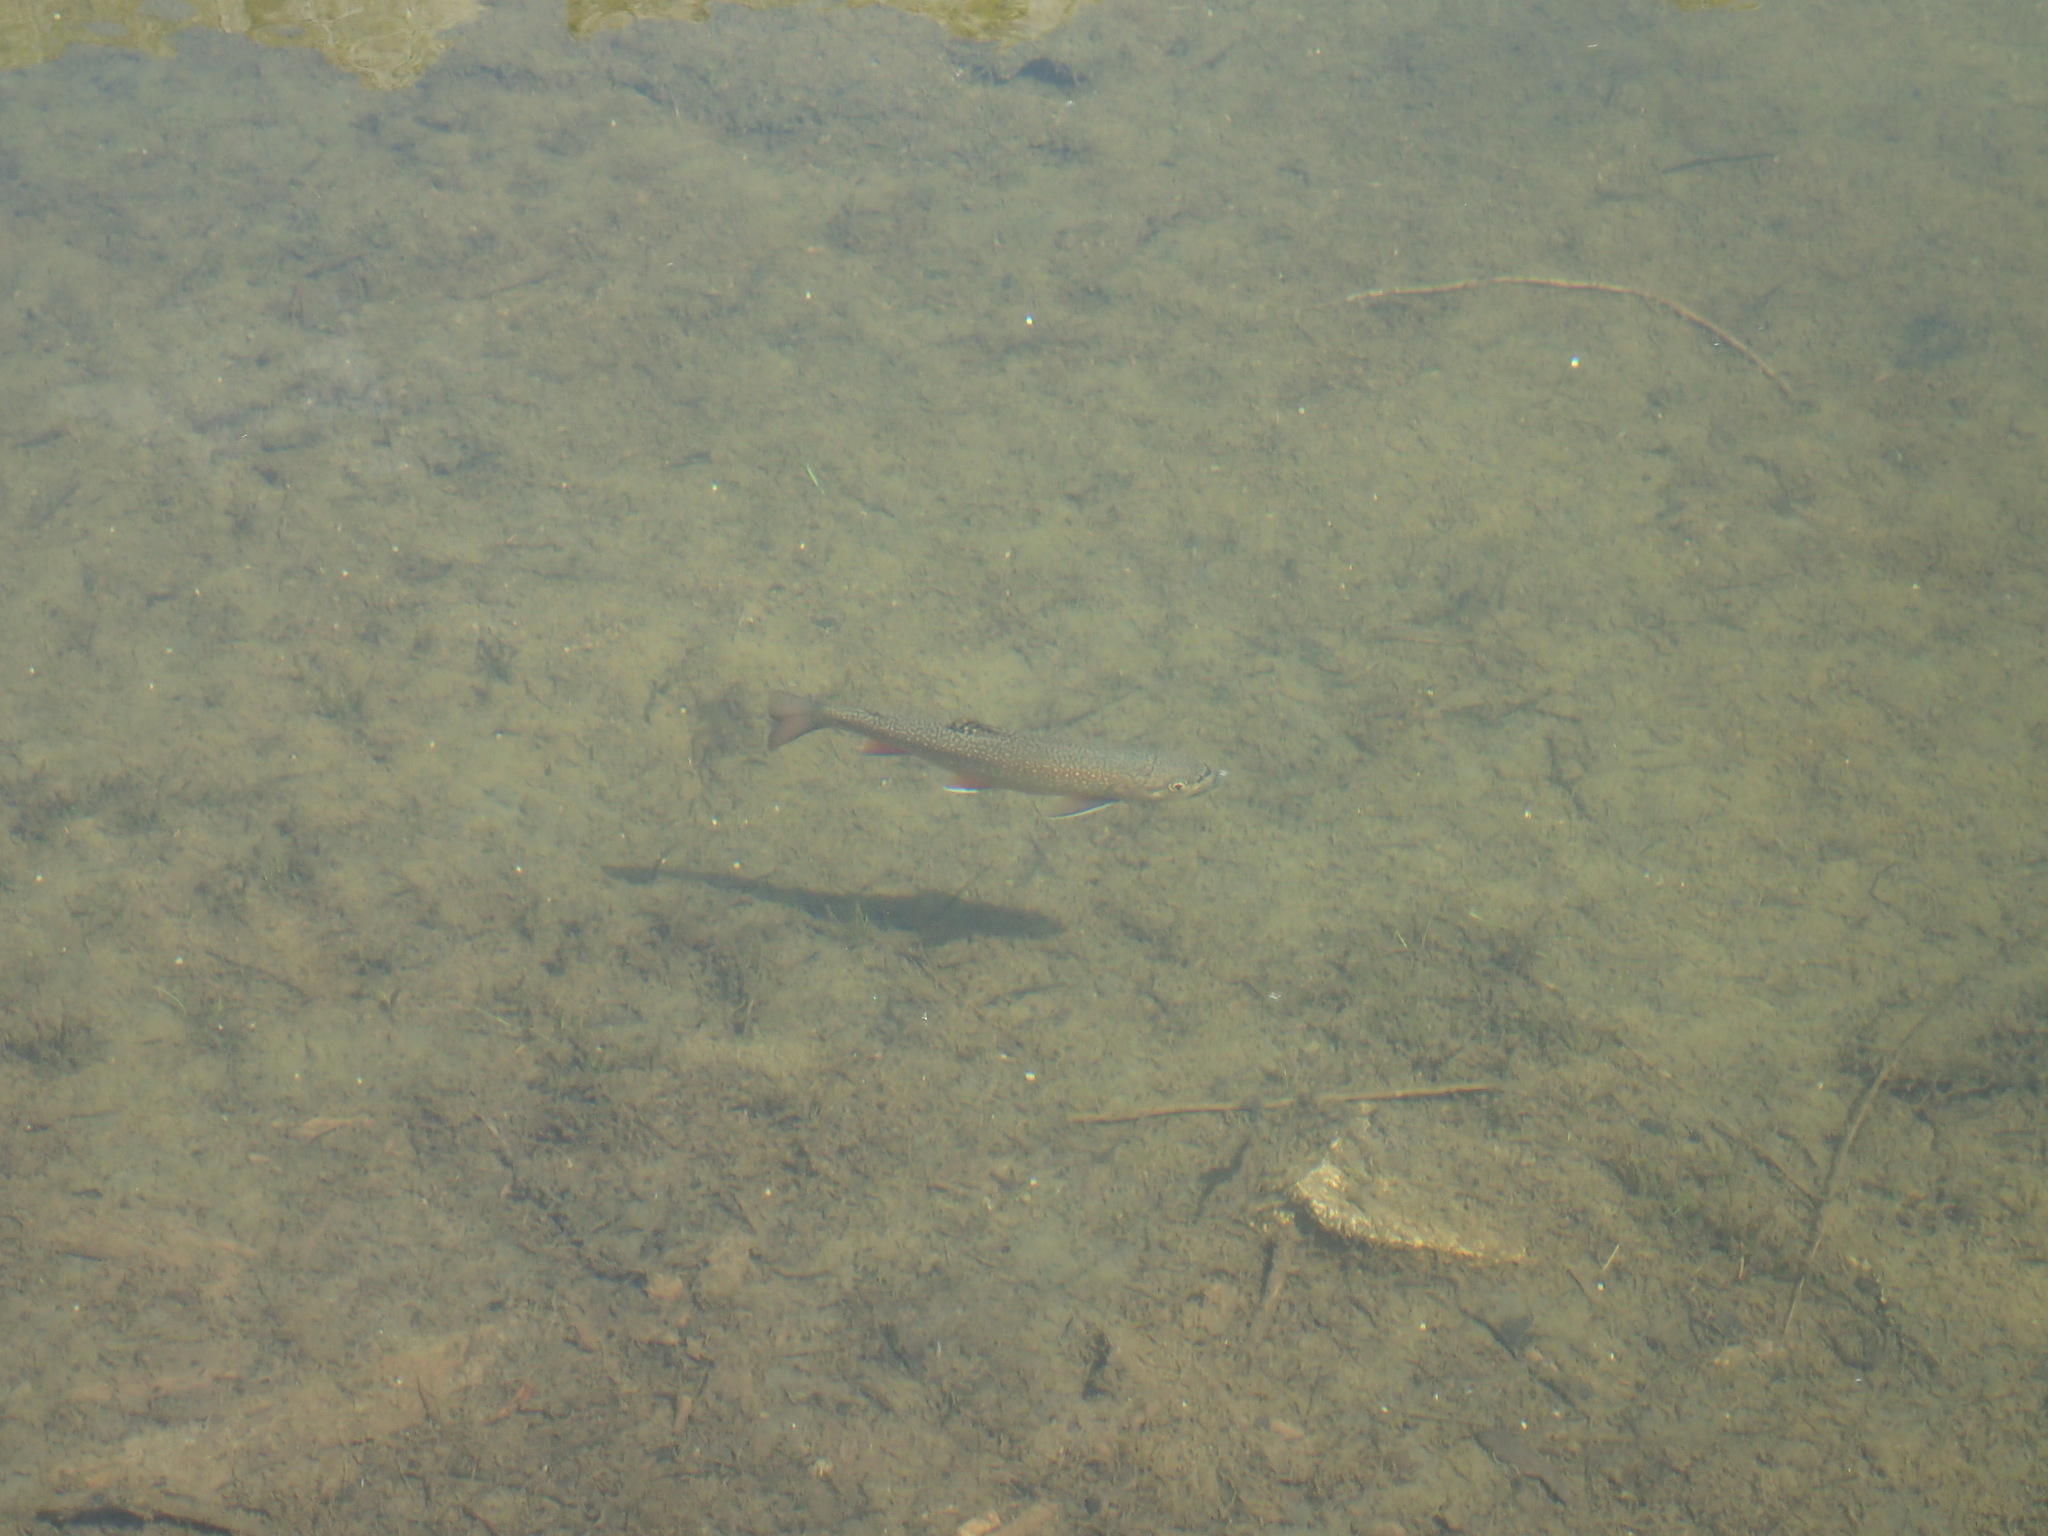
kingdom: Animalia
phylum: Chordata
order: Salmoniformes
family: Salmonidae
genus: Salvelinus
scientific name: Salvelinus fontinalis
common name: Brook trout
